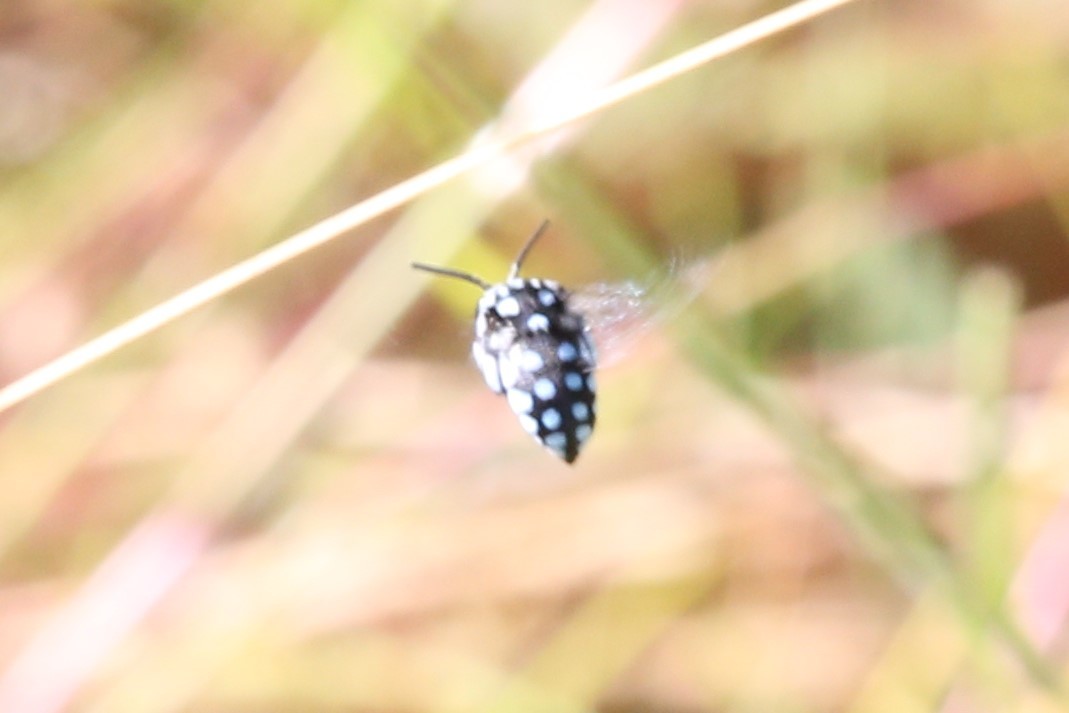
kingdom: Animalia
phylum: Arthropoda
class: Insecta
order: Hymenoptera
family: Apidae
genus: Thyreus
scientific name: Thyreus caeruleopunctatus
